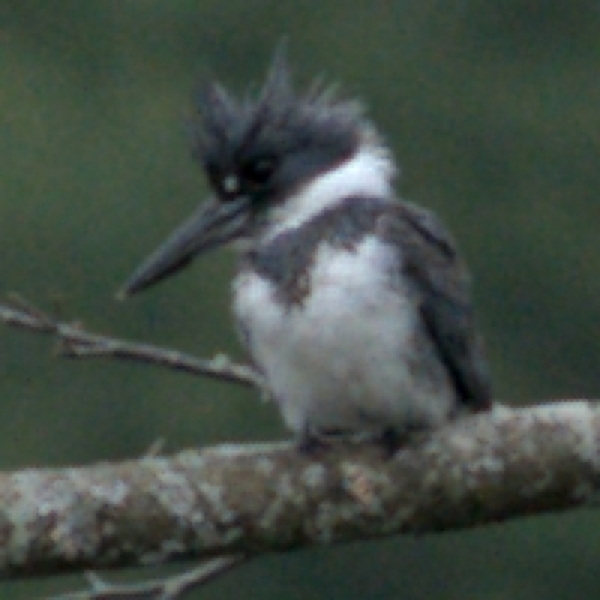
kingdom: Animalia
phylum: Chordata
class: Aves
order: Coraciiformes
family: Alcedinidae
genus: Megaceryle
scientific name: Megaceryle alcyon
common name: Belted kingfisher
